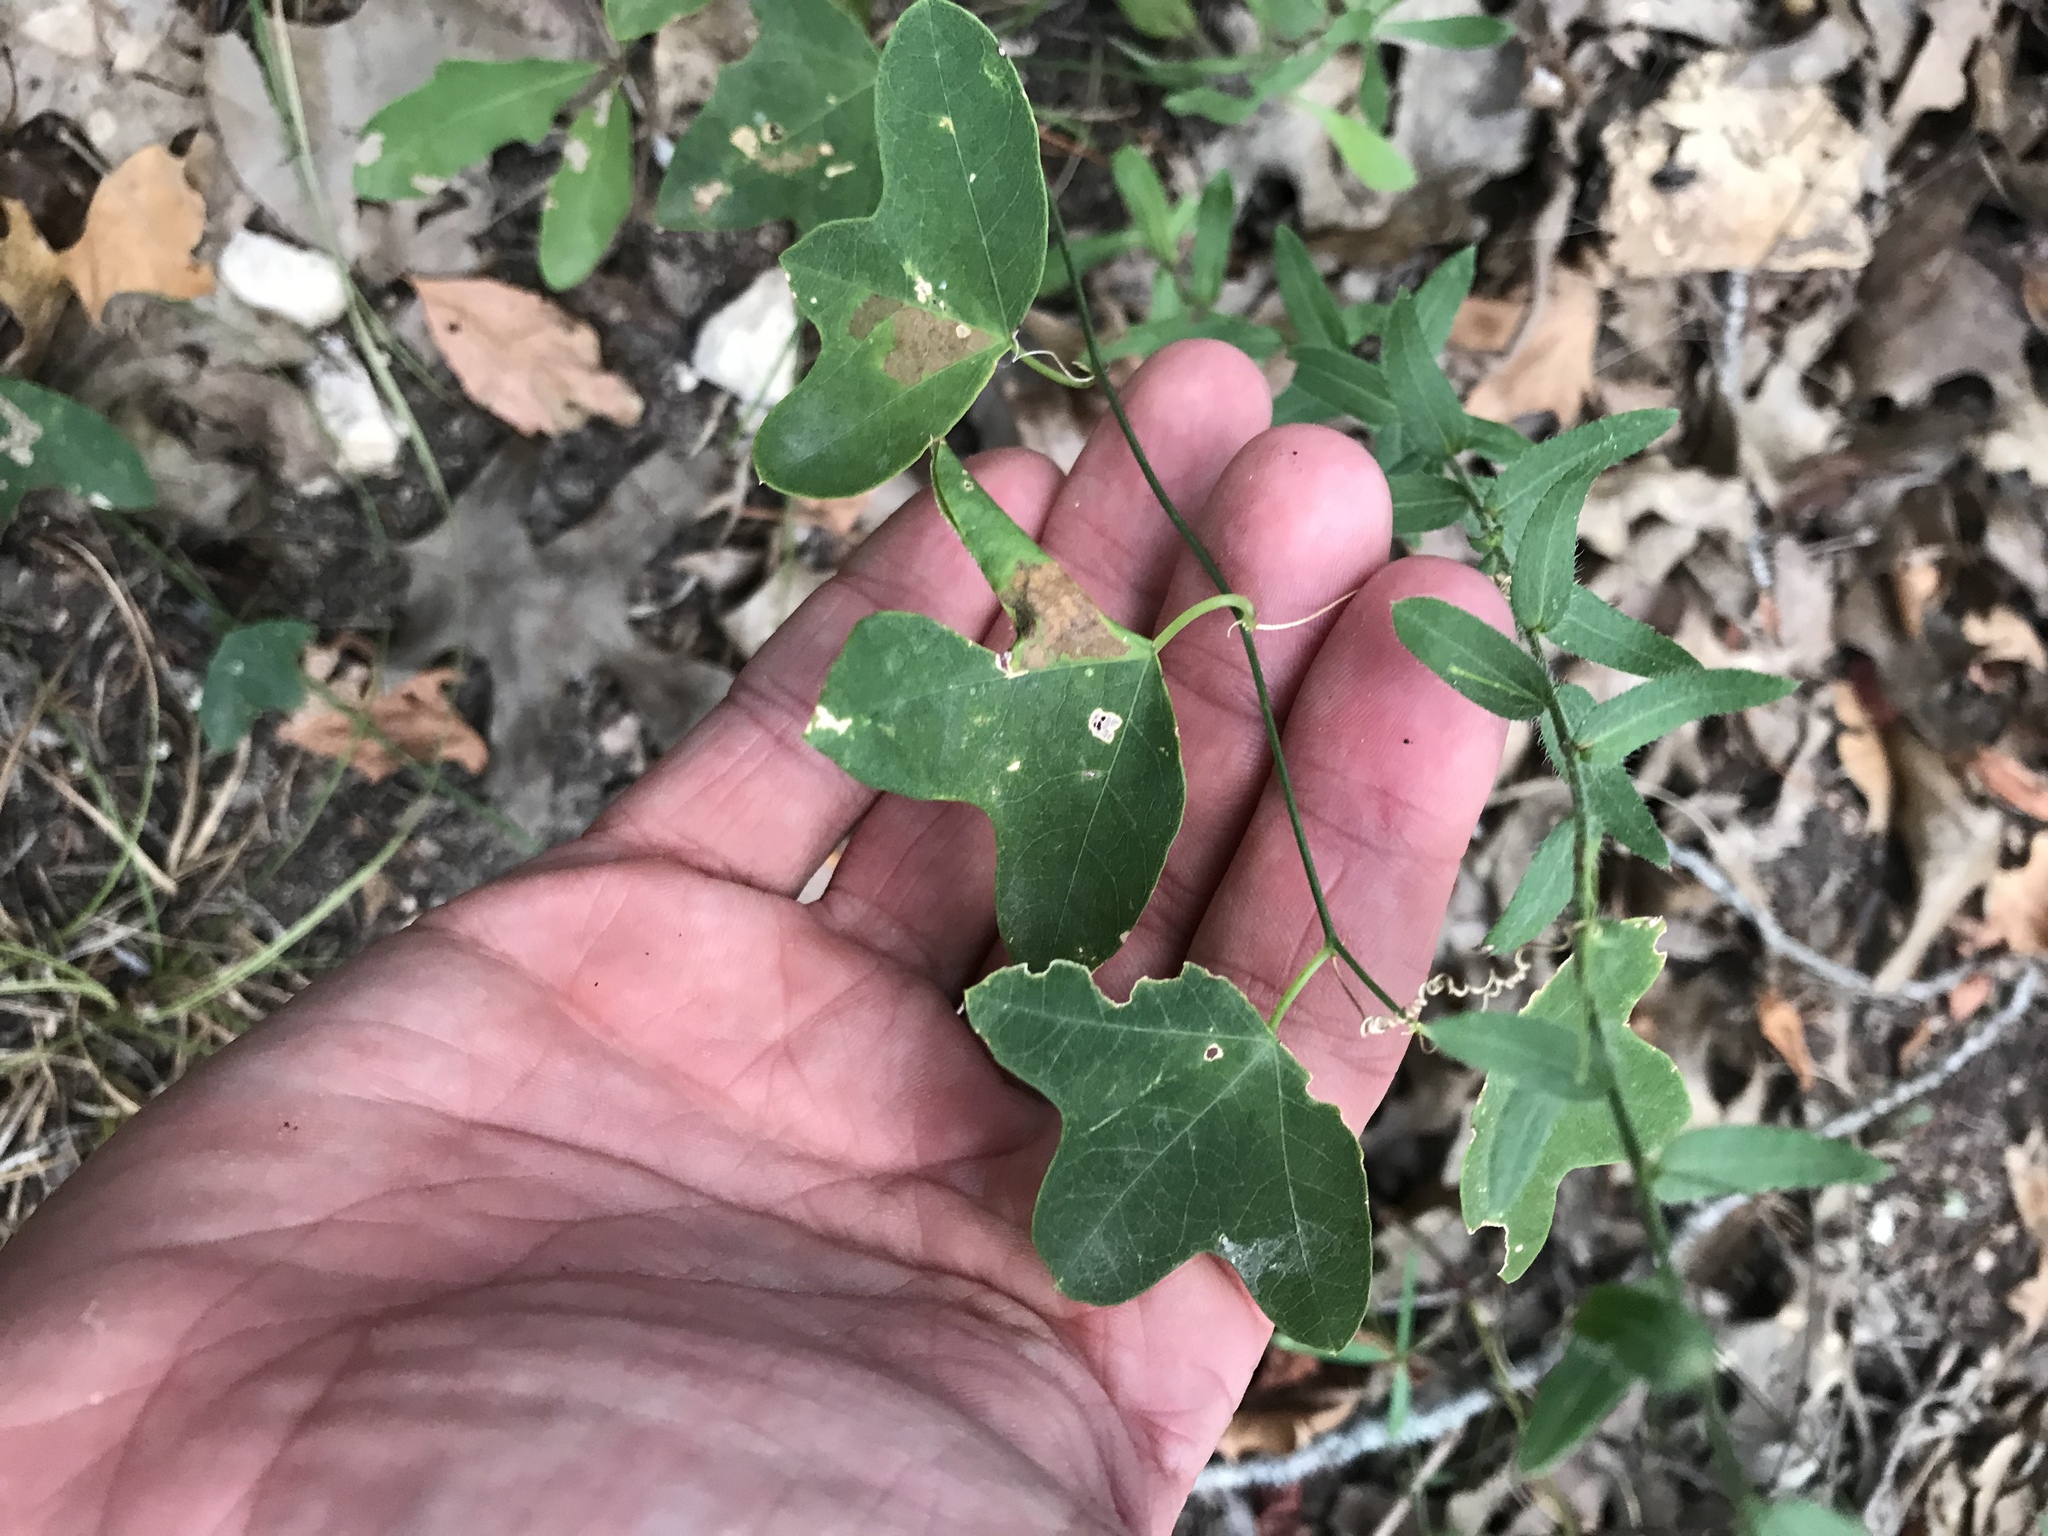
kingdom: Plantae
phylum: Tracheophyta
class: Magnoliopsida
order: Malpighiales
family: Passifloraceae
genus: Passiflora
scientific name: Passiflora lutea
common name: Yellow passionflower
